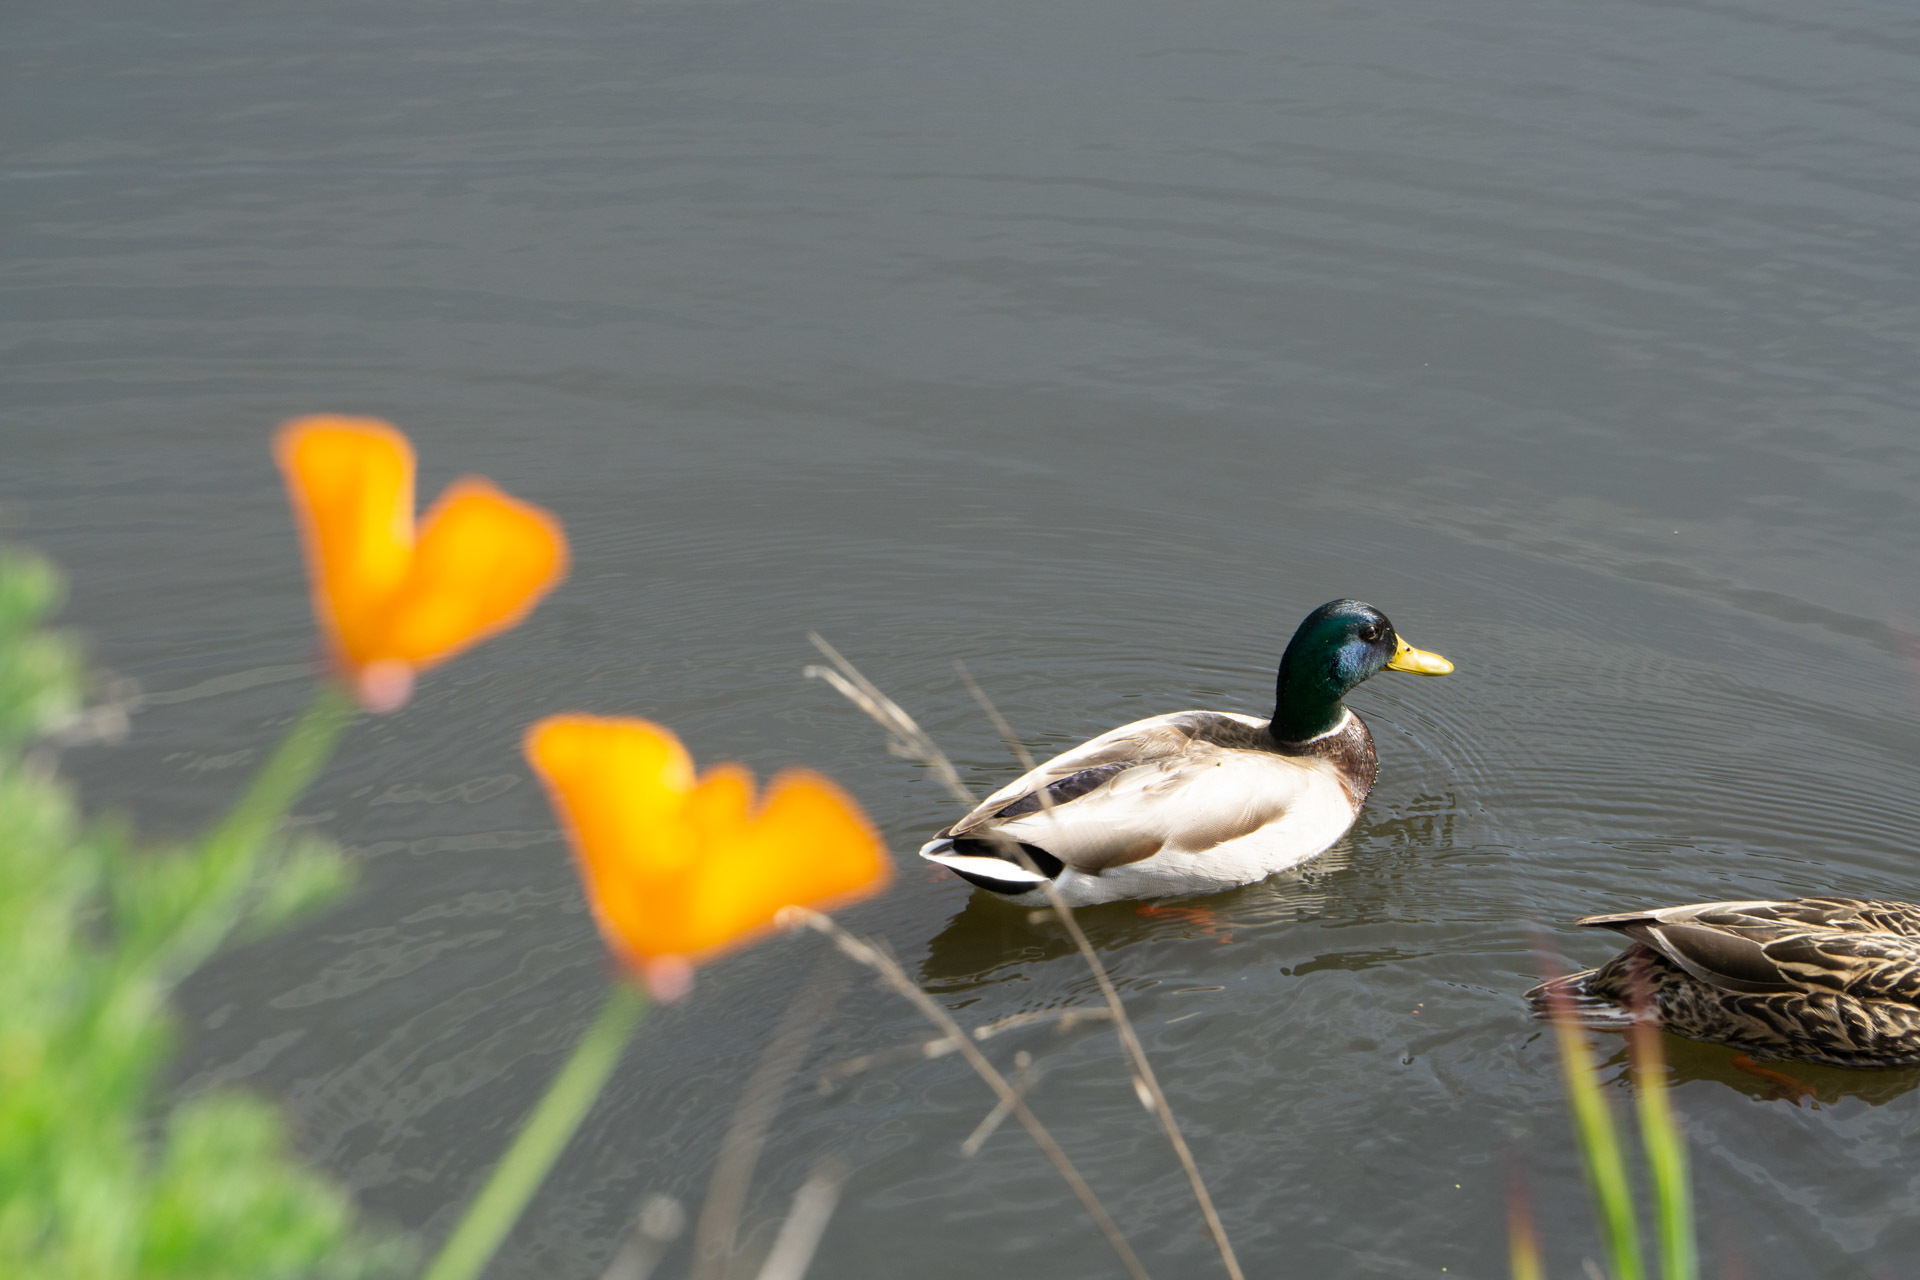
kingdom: Animalia
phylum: Chordata
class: Aves
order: Anseriformes
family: Anatidae
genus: Anas
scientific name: Anas platyrhynchos
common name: Mallard
